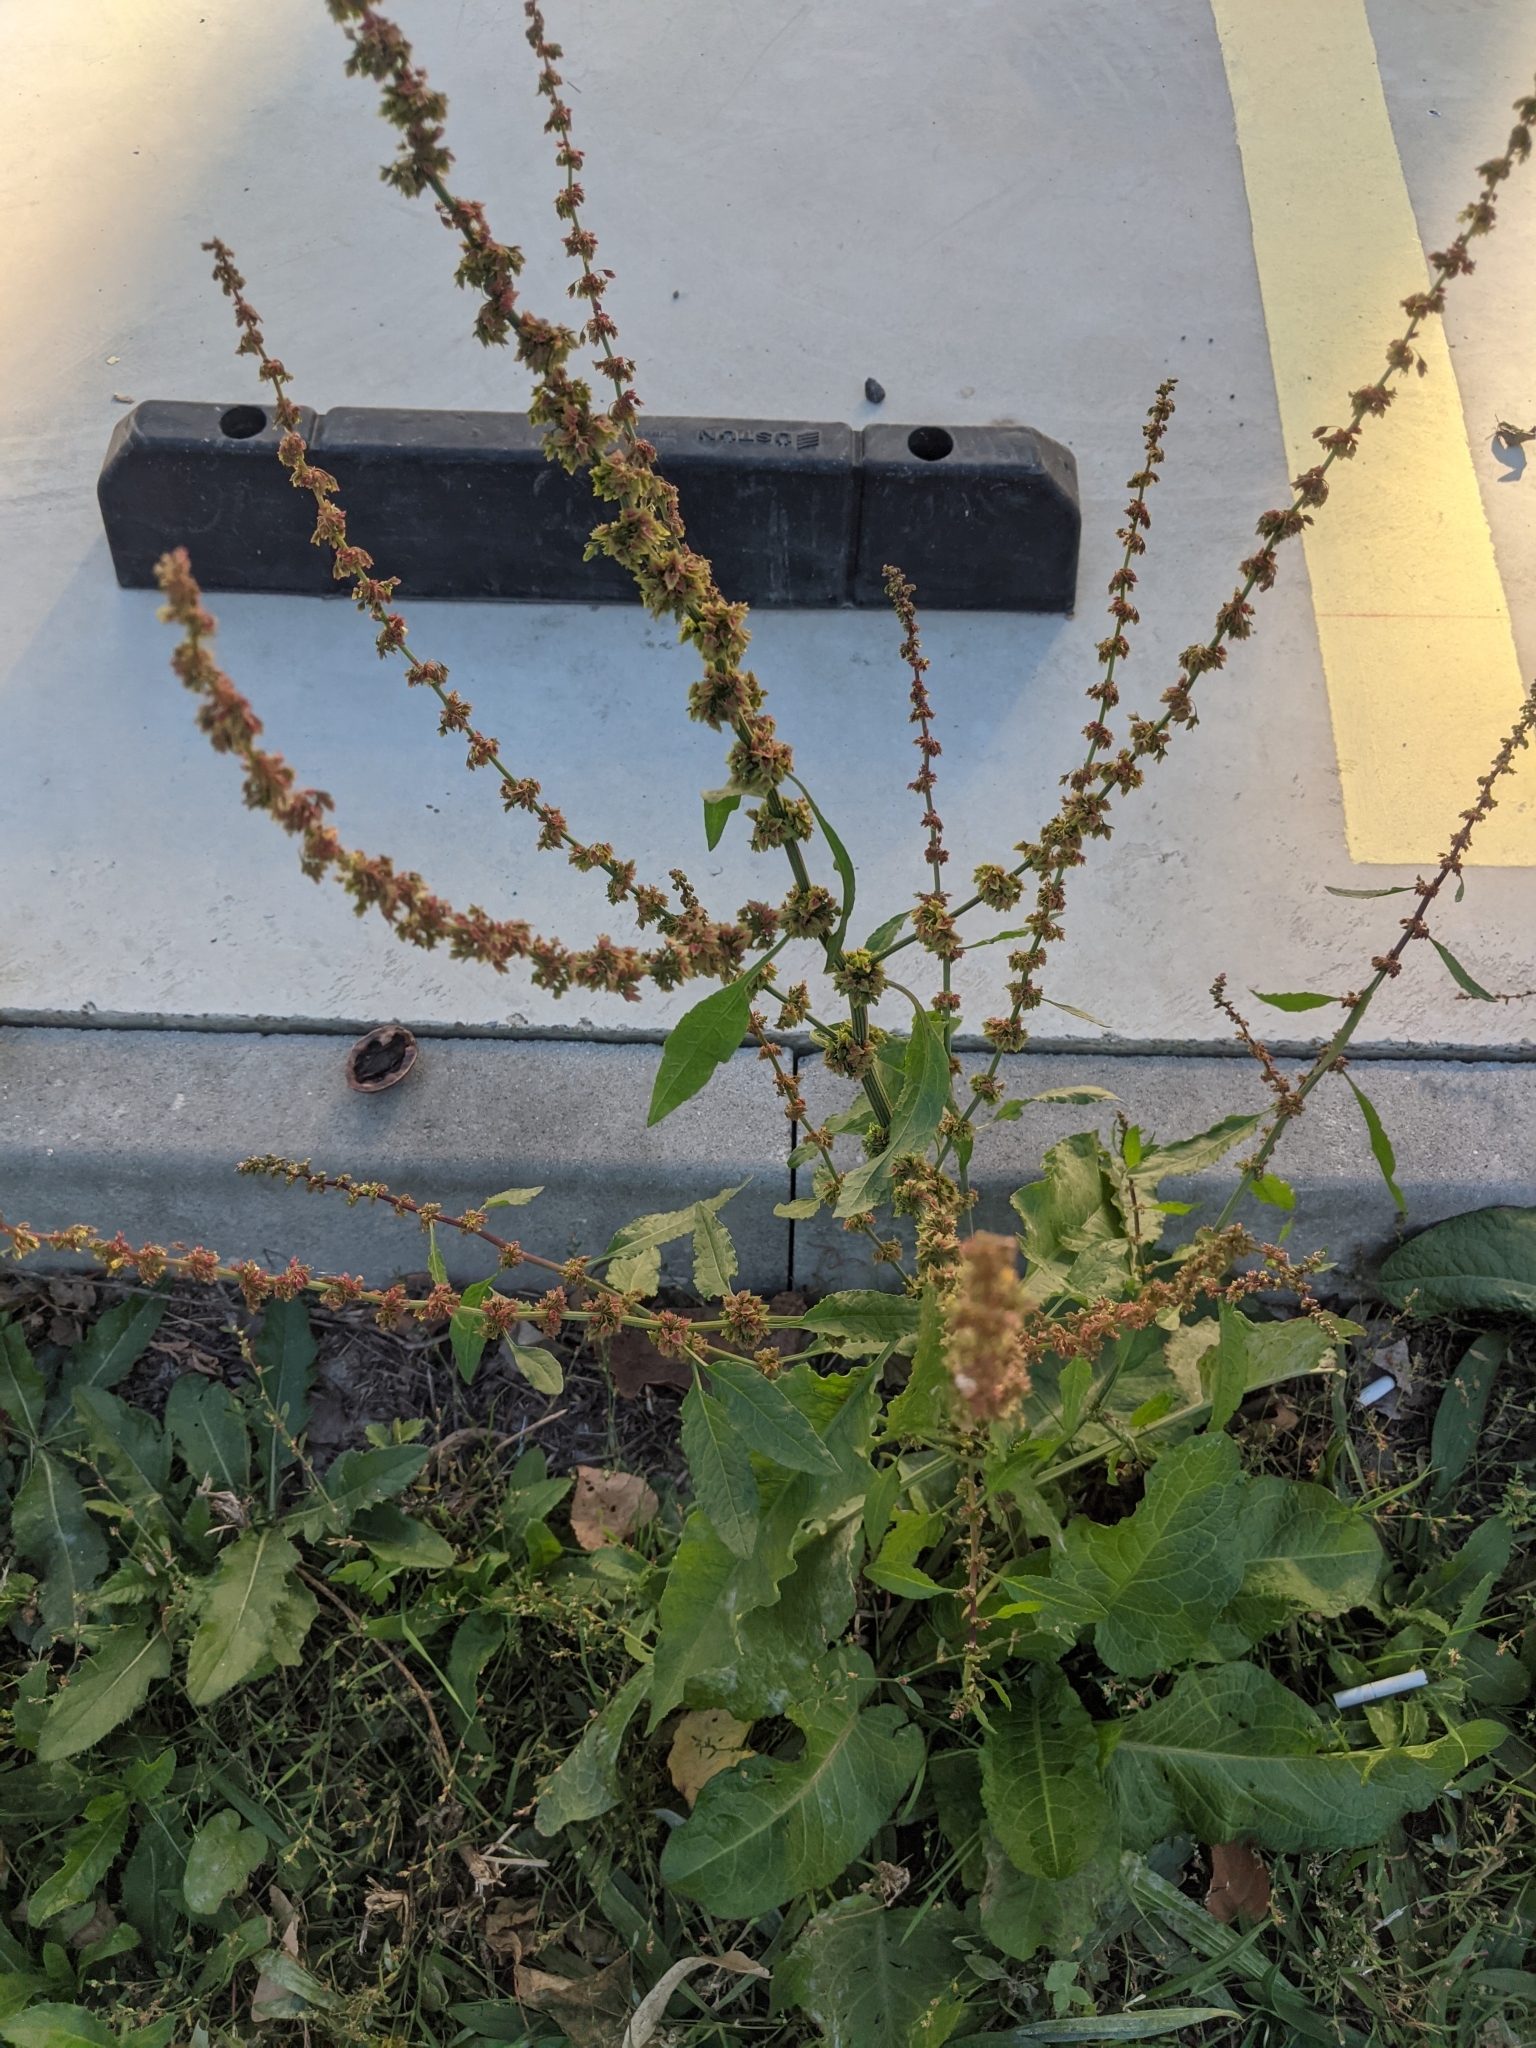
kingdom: Plantae
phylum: Tracheophyta
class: Magnoliopsida
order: Caryophyllales
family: Polygonaceae
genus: Rumex
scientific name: Rumex obtusifolius
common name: Bitter dock
